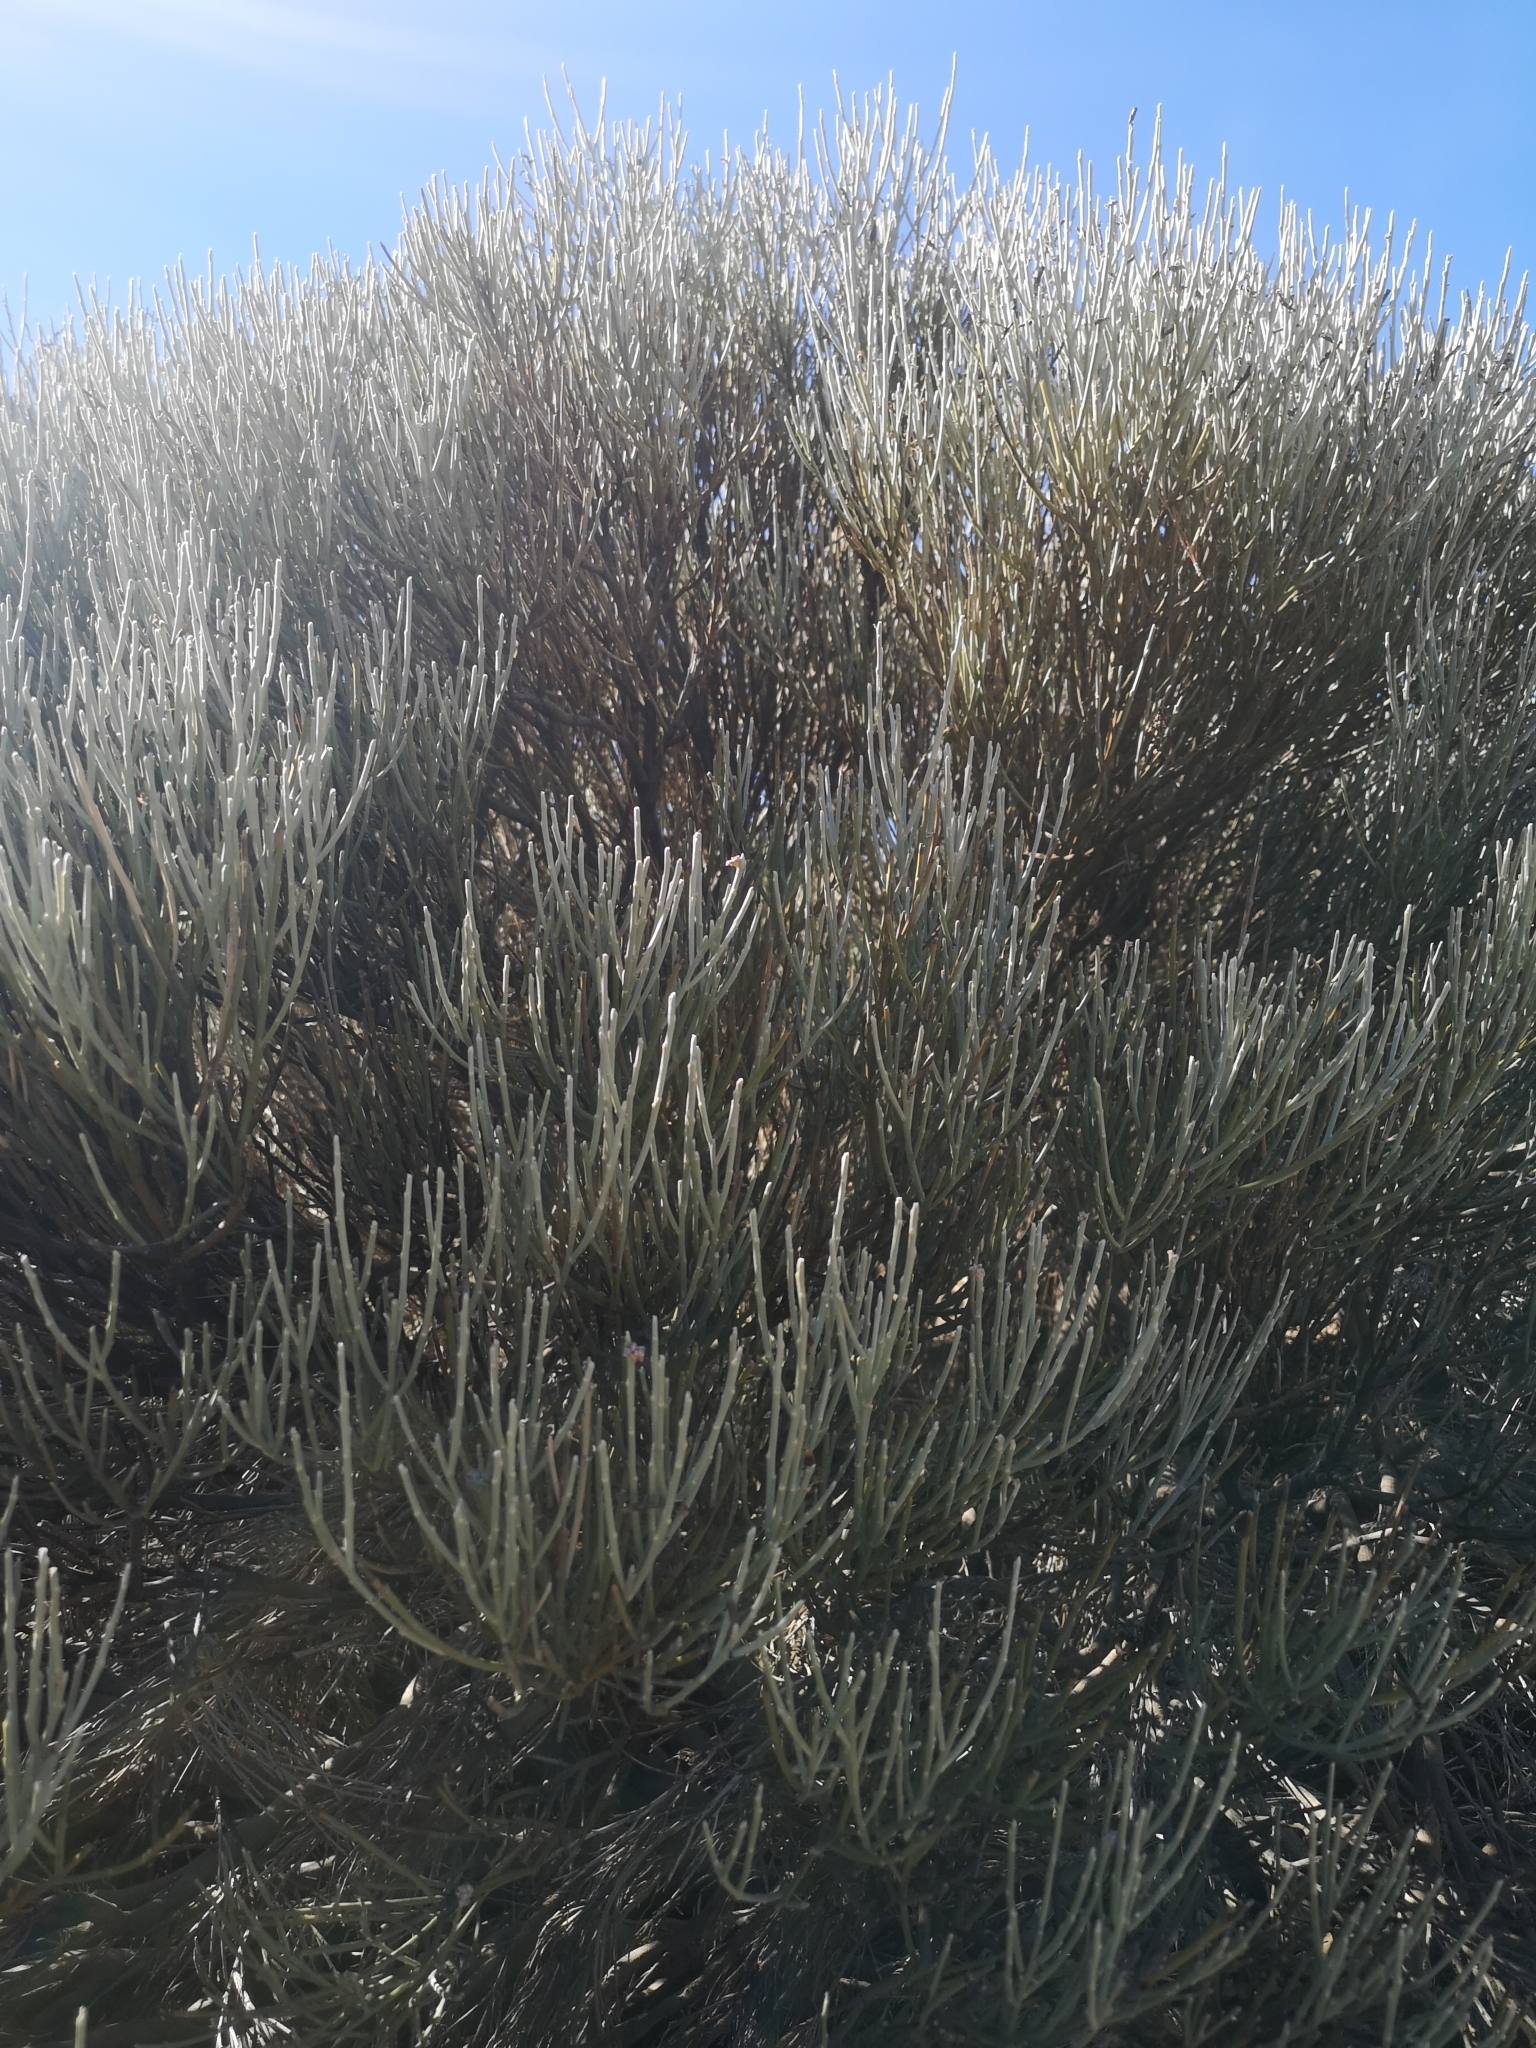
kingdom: Plantae
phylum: Tracheophyta
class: Magnoliopsida
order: Fabales
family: Fabaceae
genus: Cytisus
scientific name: Cytisus supranubius
